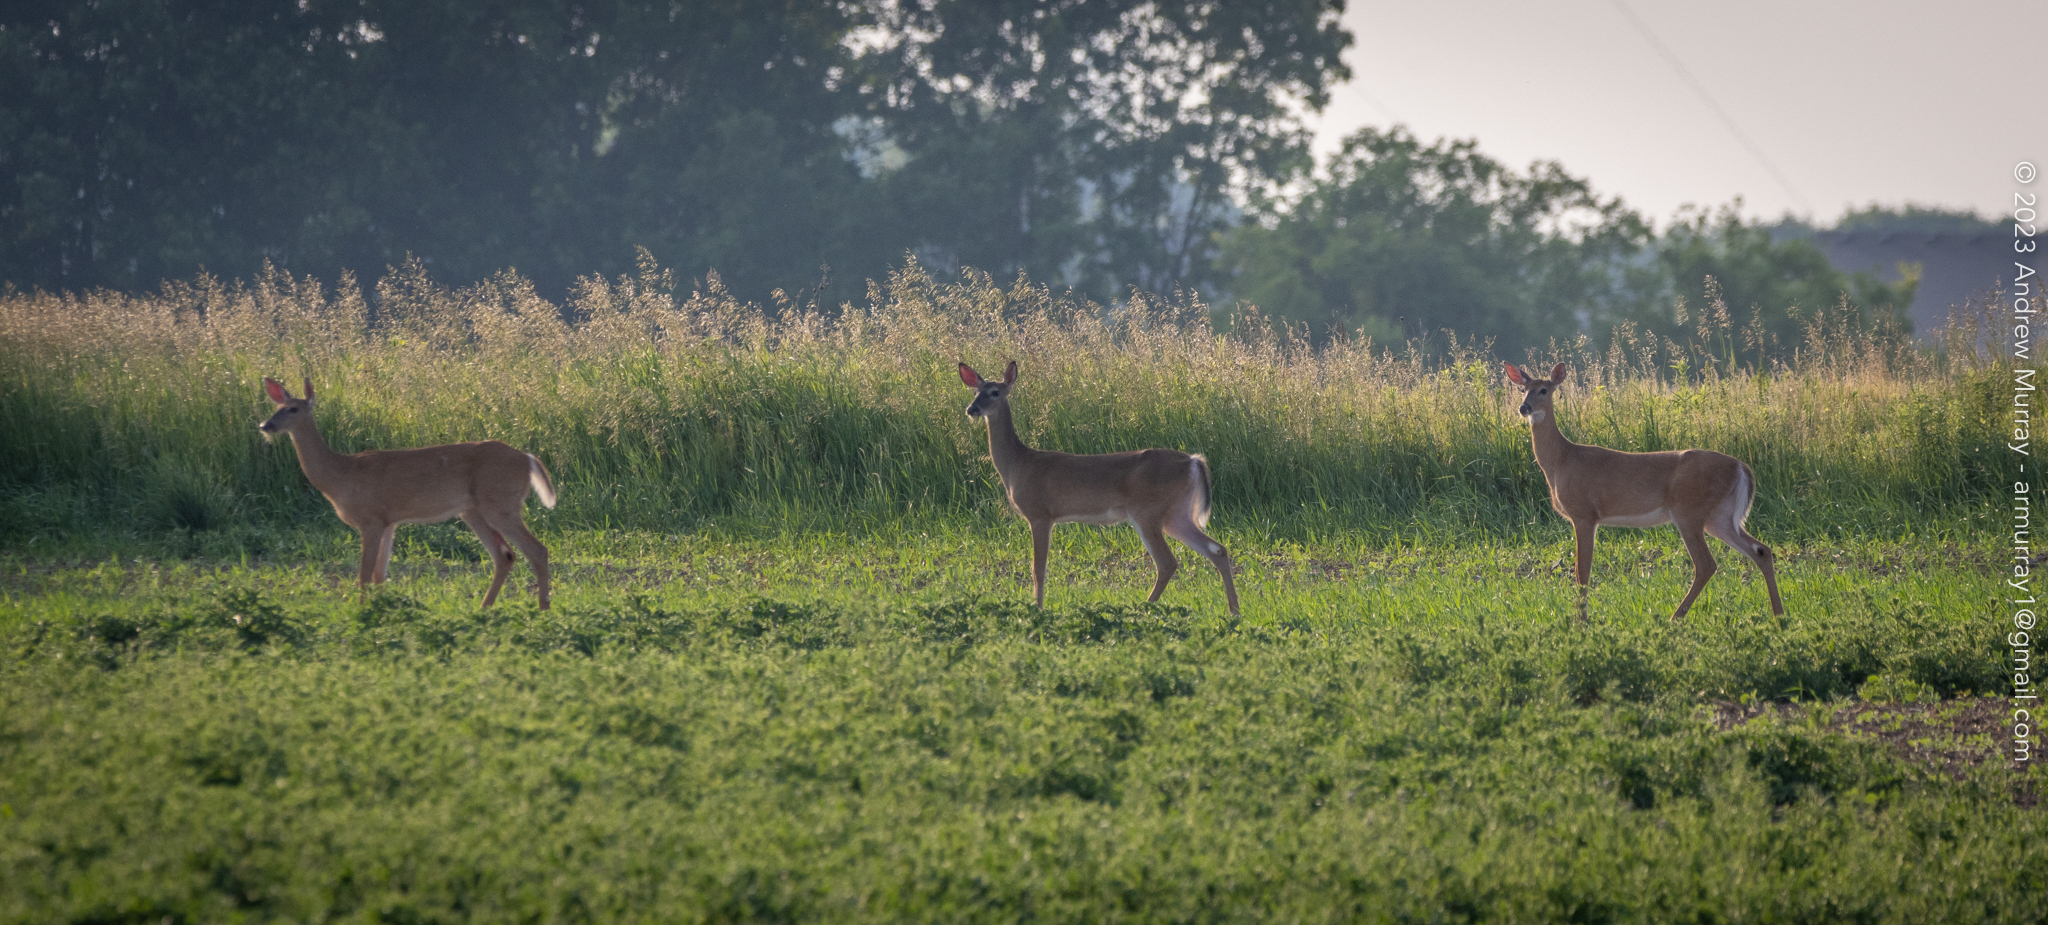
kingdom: Animalia
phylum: Chordata
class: Mammalia
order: Artiodactyla
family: Cervidae
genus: Odocoileus
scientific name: Odocoileus virginianus
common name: White-tailed deer
